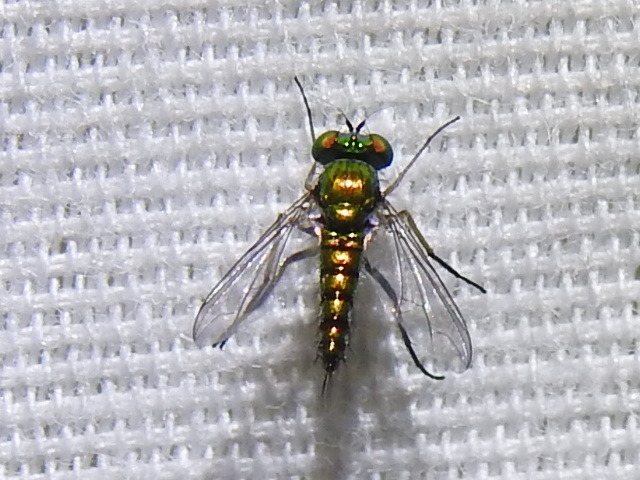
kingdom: Animalia
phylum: Arthropoda
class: Insecta
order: Diptera
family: Dolichopodidae
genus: Condylostylus
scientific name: Condylostylus caudatus
